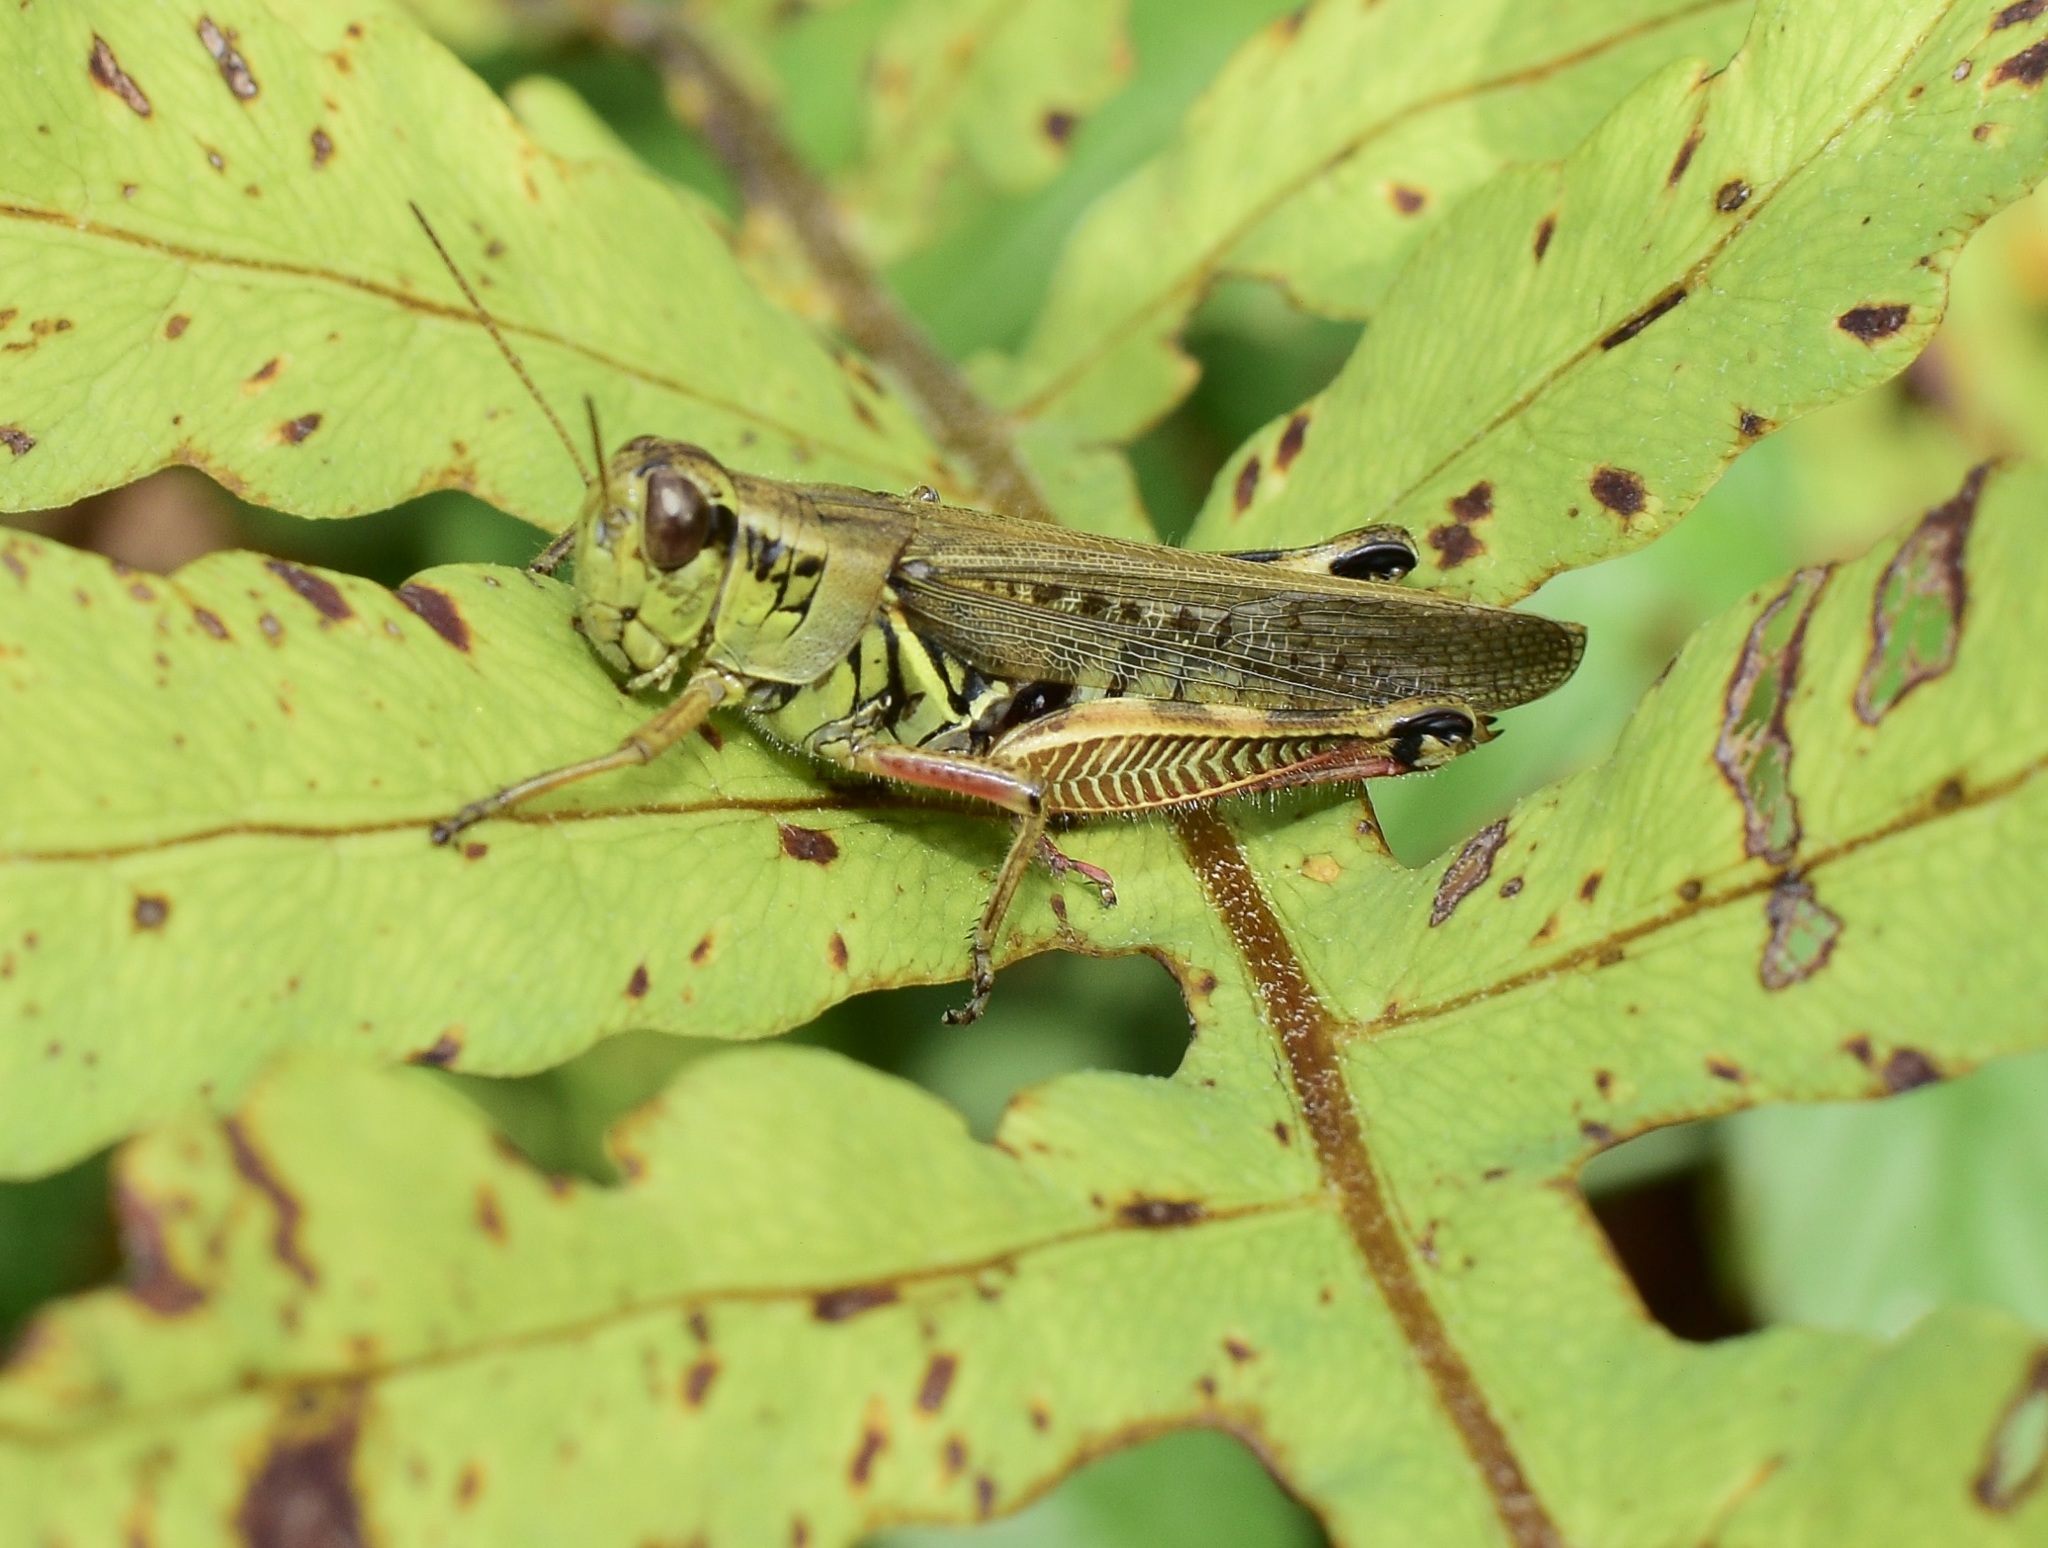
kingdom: Animalia
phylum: Arthropoda
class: Insecta
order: Orthoptera
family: Acrididae
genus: Melanoplus
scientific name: Melanoplus femurrubrum
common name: Red-legged grasshopper
